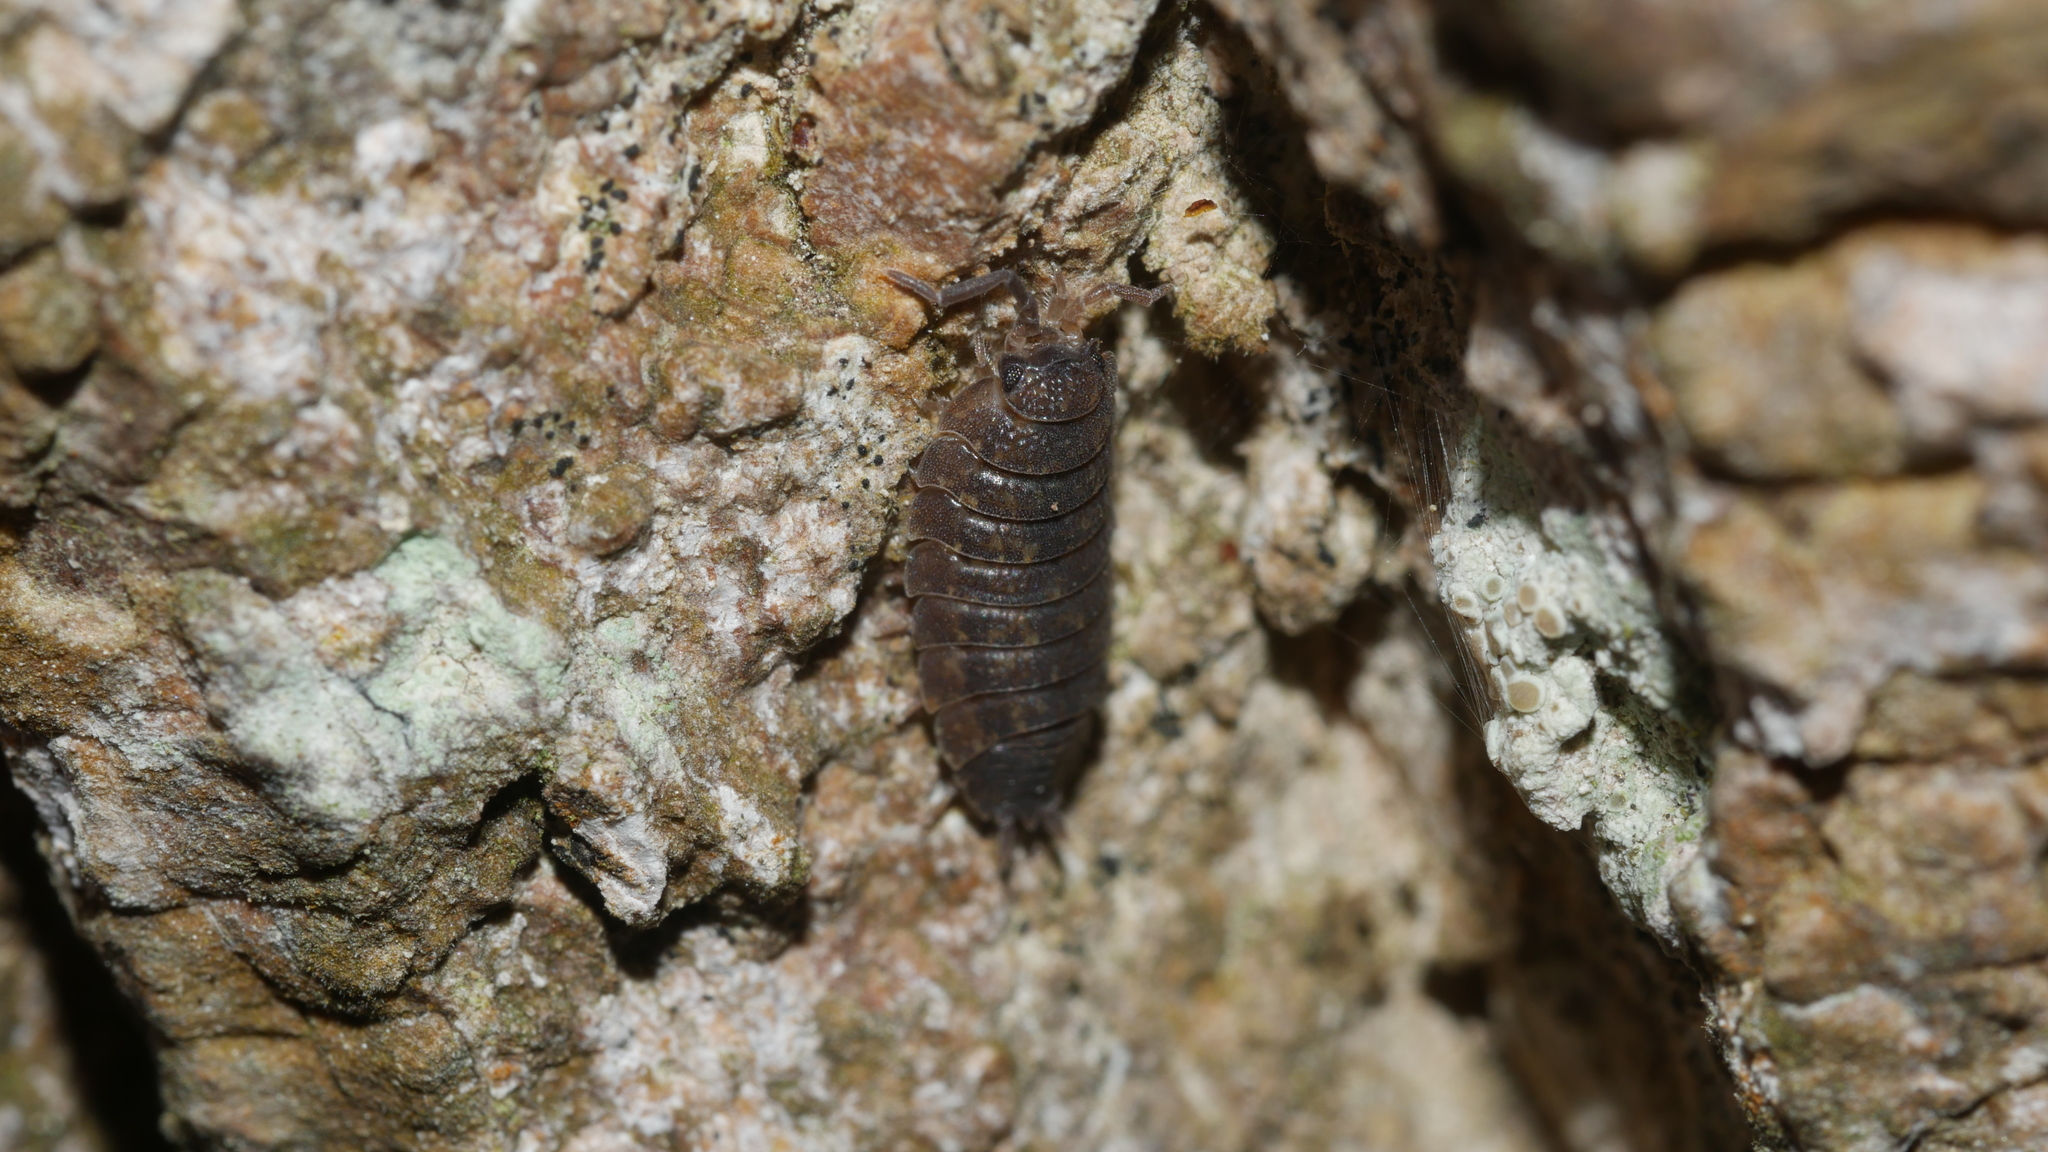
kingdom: Animalia
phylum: Arthropoda
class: Malacostraca
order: Isopoda
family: Porcellionidae
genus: Porcellio
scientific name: Porcellio scaber
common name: Common rough woodlouse
